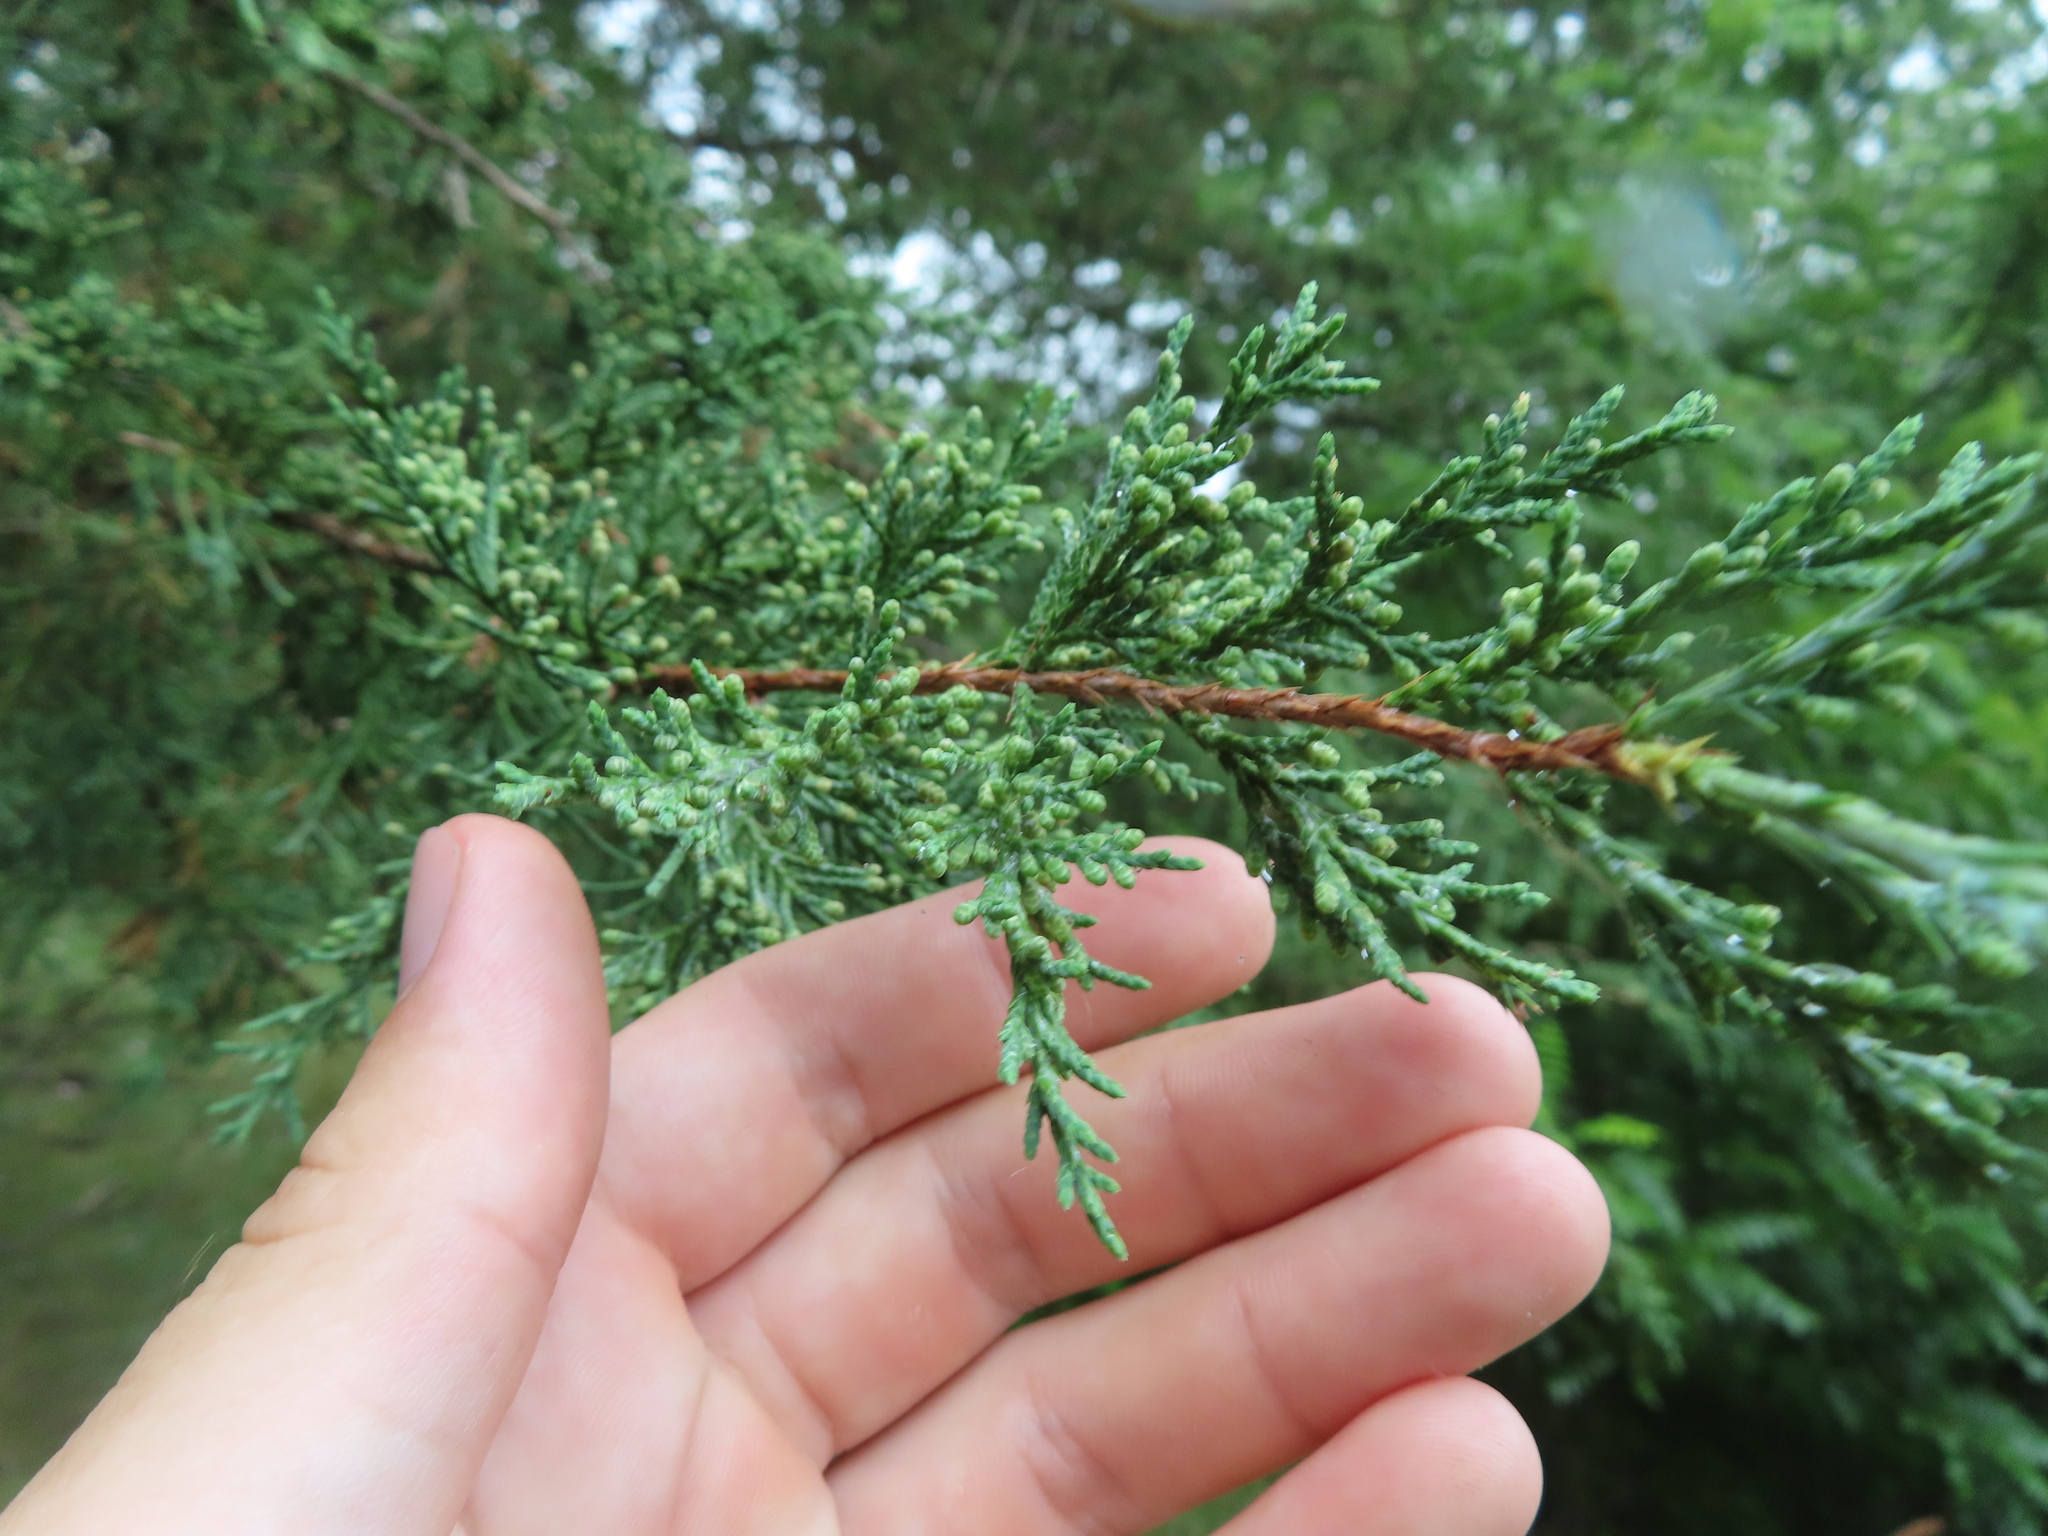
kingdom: Plantae
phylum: Tracheophyta
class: Pinopsida
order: Pinales
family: Cupressaceae
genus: Juniperus
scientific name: Juniperus virginiana
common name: Red juniper
